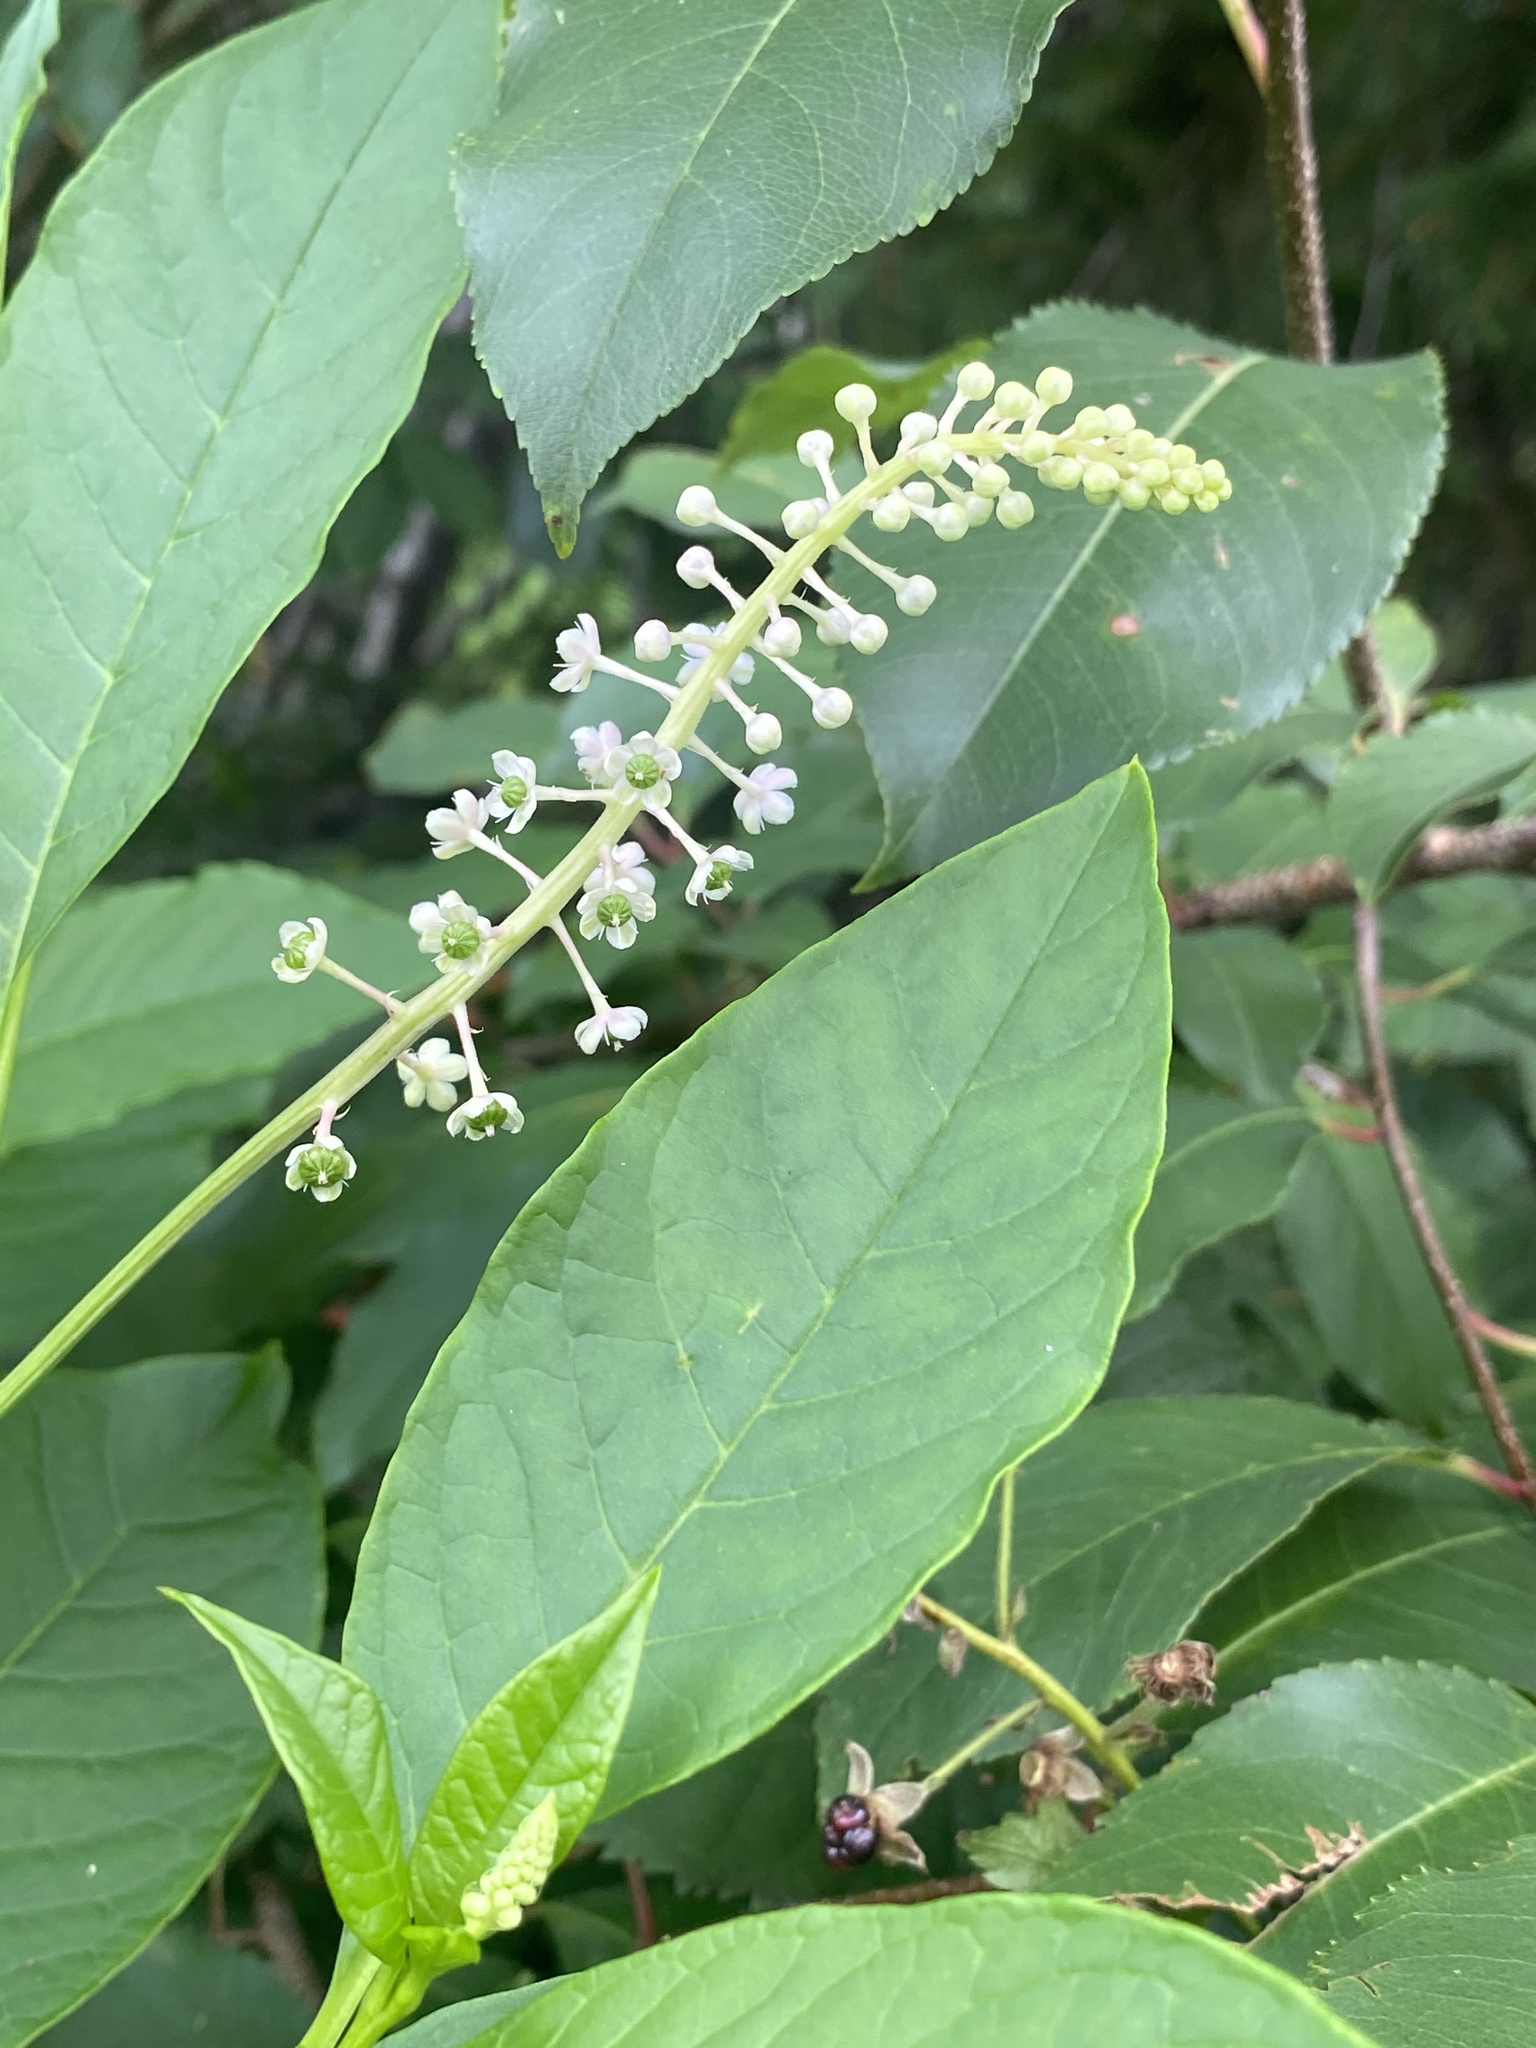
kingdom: Plantae
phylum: Tracheophyta
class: Magnoliopsida
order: Caryophyllales
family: Phytolaccaceae
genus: Phytolacca
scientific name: Phytolacca americana
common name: American pokeweed
